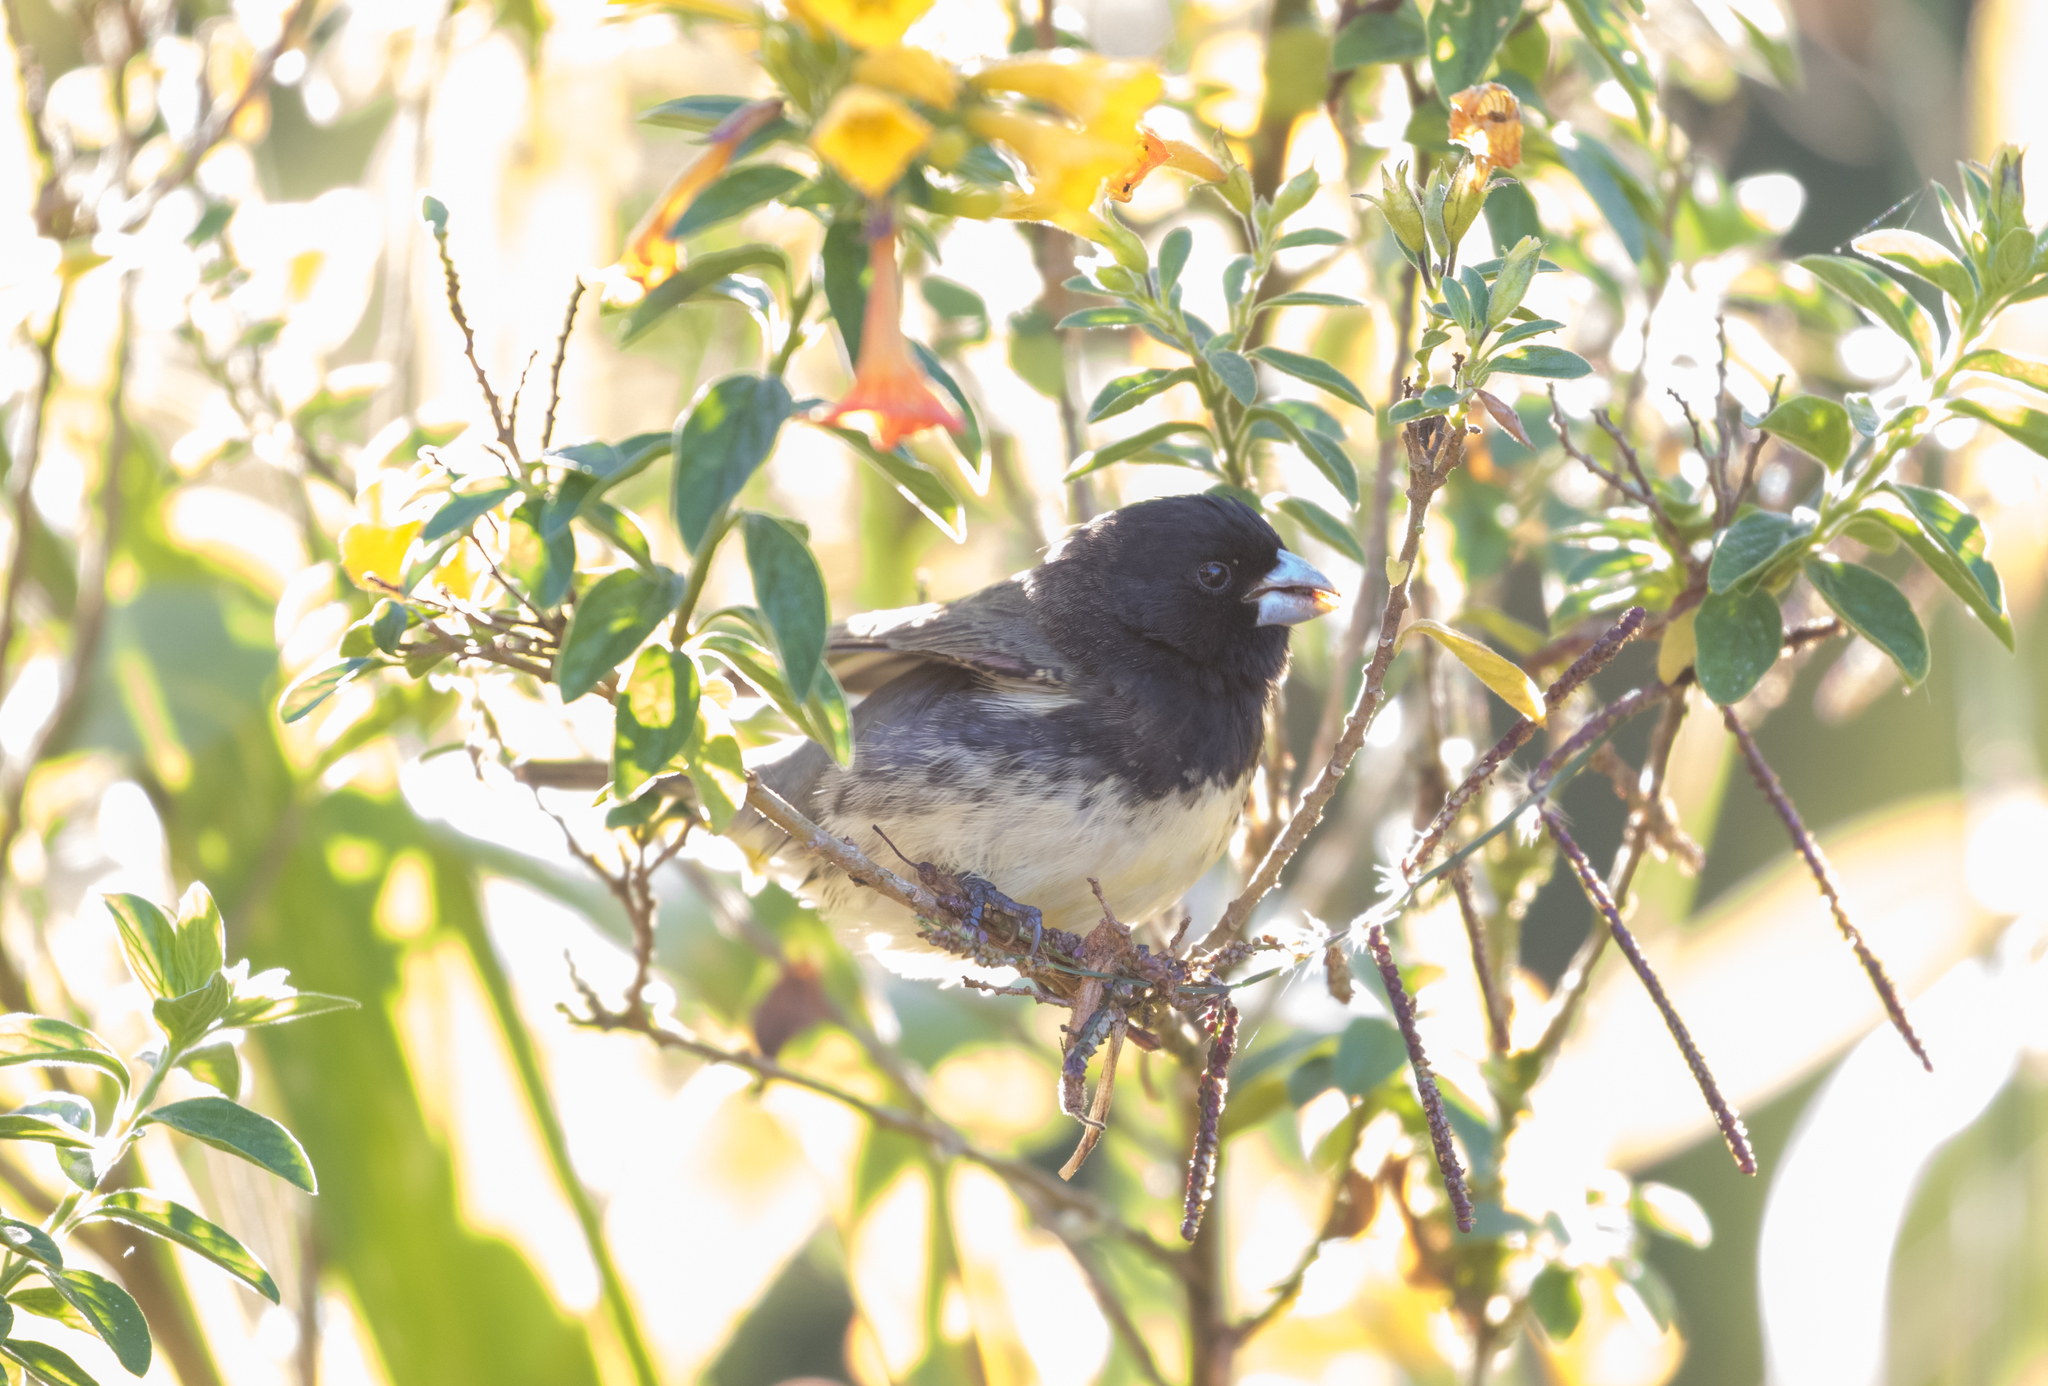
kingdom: Animalia
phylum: Chordata
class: Aves
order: Passeriformes
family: Thraupidae
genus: Sporophila
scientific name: Sporophila nigricollis
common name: Yellow-bellied seedeater
